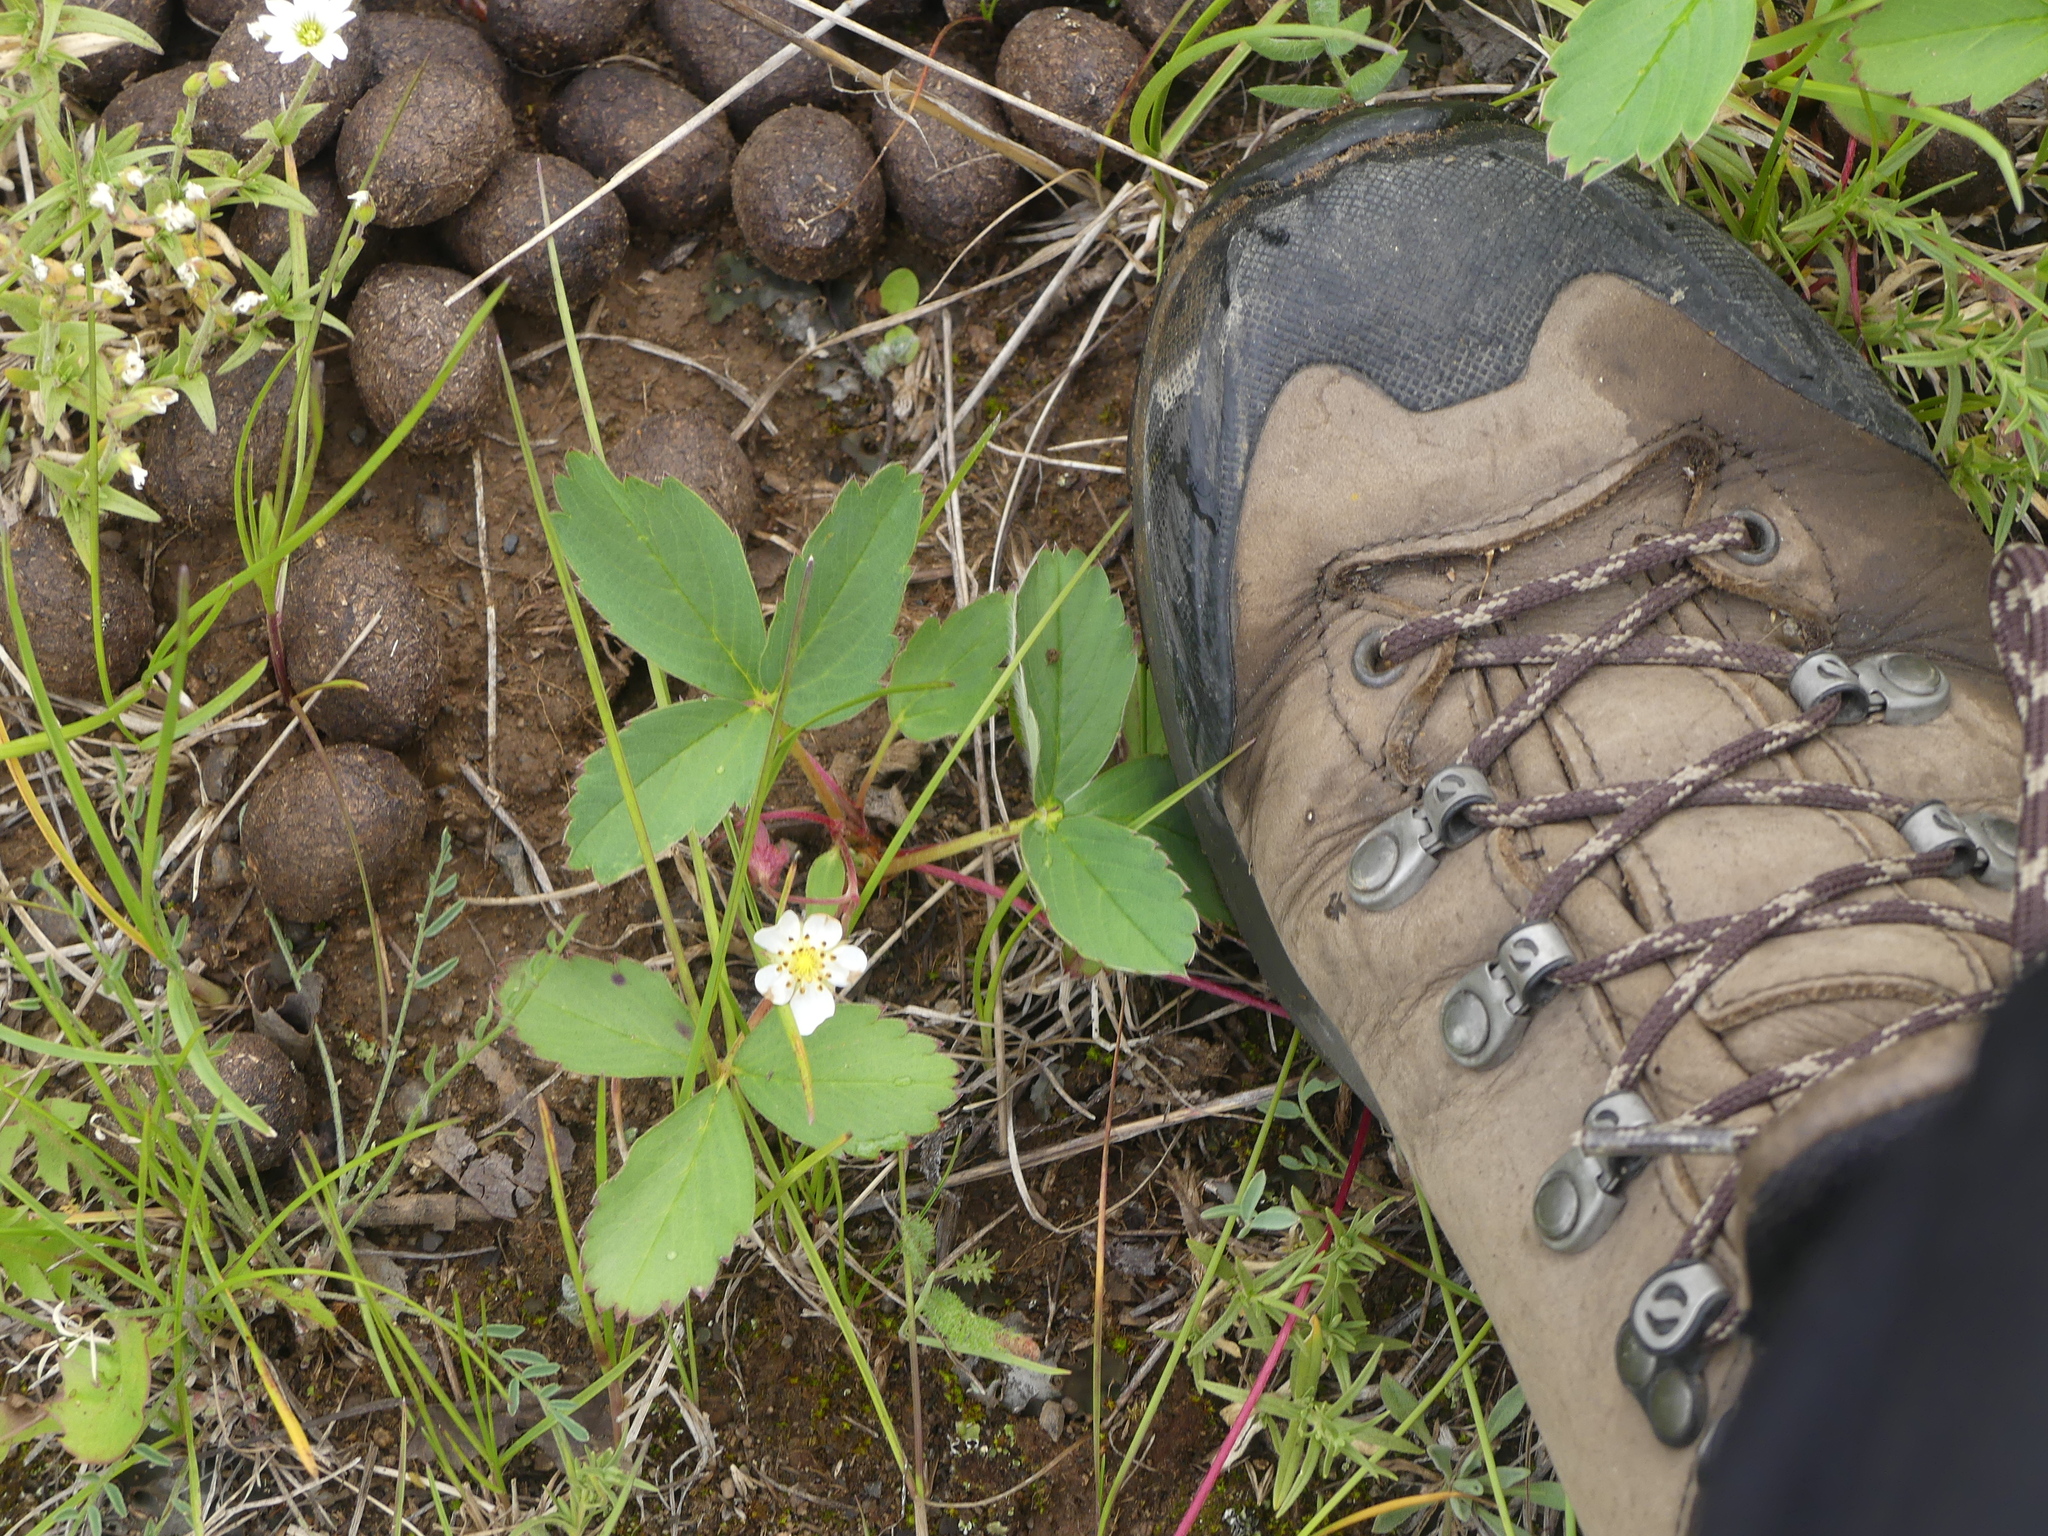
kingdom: Plantae
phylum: Tracheophyta
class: Magnoliopsida
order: Rosales
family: Rosaceae
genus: Fragaria
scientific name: Fragaria virginiana
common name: Thickleaved wild strawberry
